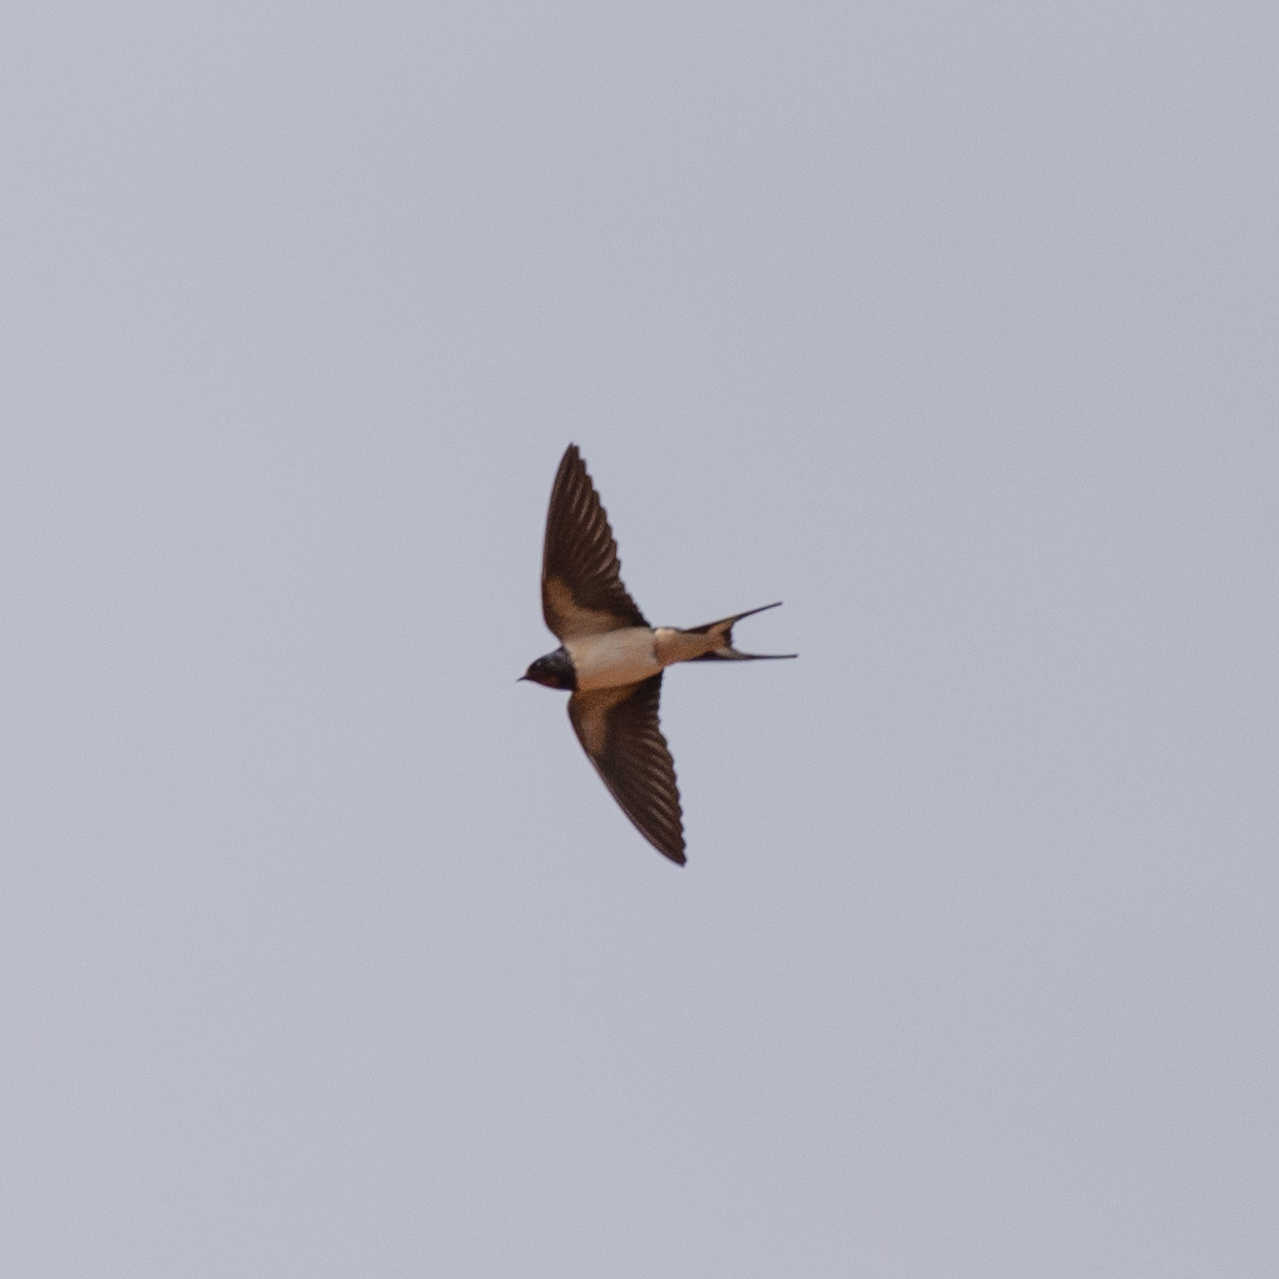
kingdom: Animalia
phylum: Chordata
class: Aves
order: Passeriformes
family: Hirundinidae
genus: Hirundo
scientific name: Hirundo rustica
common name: Barn swallow
